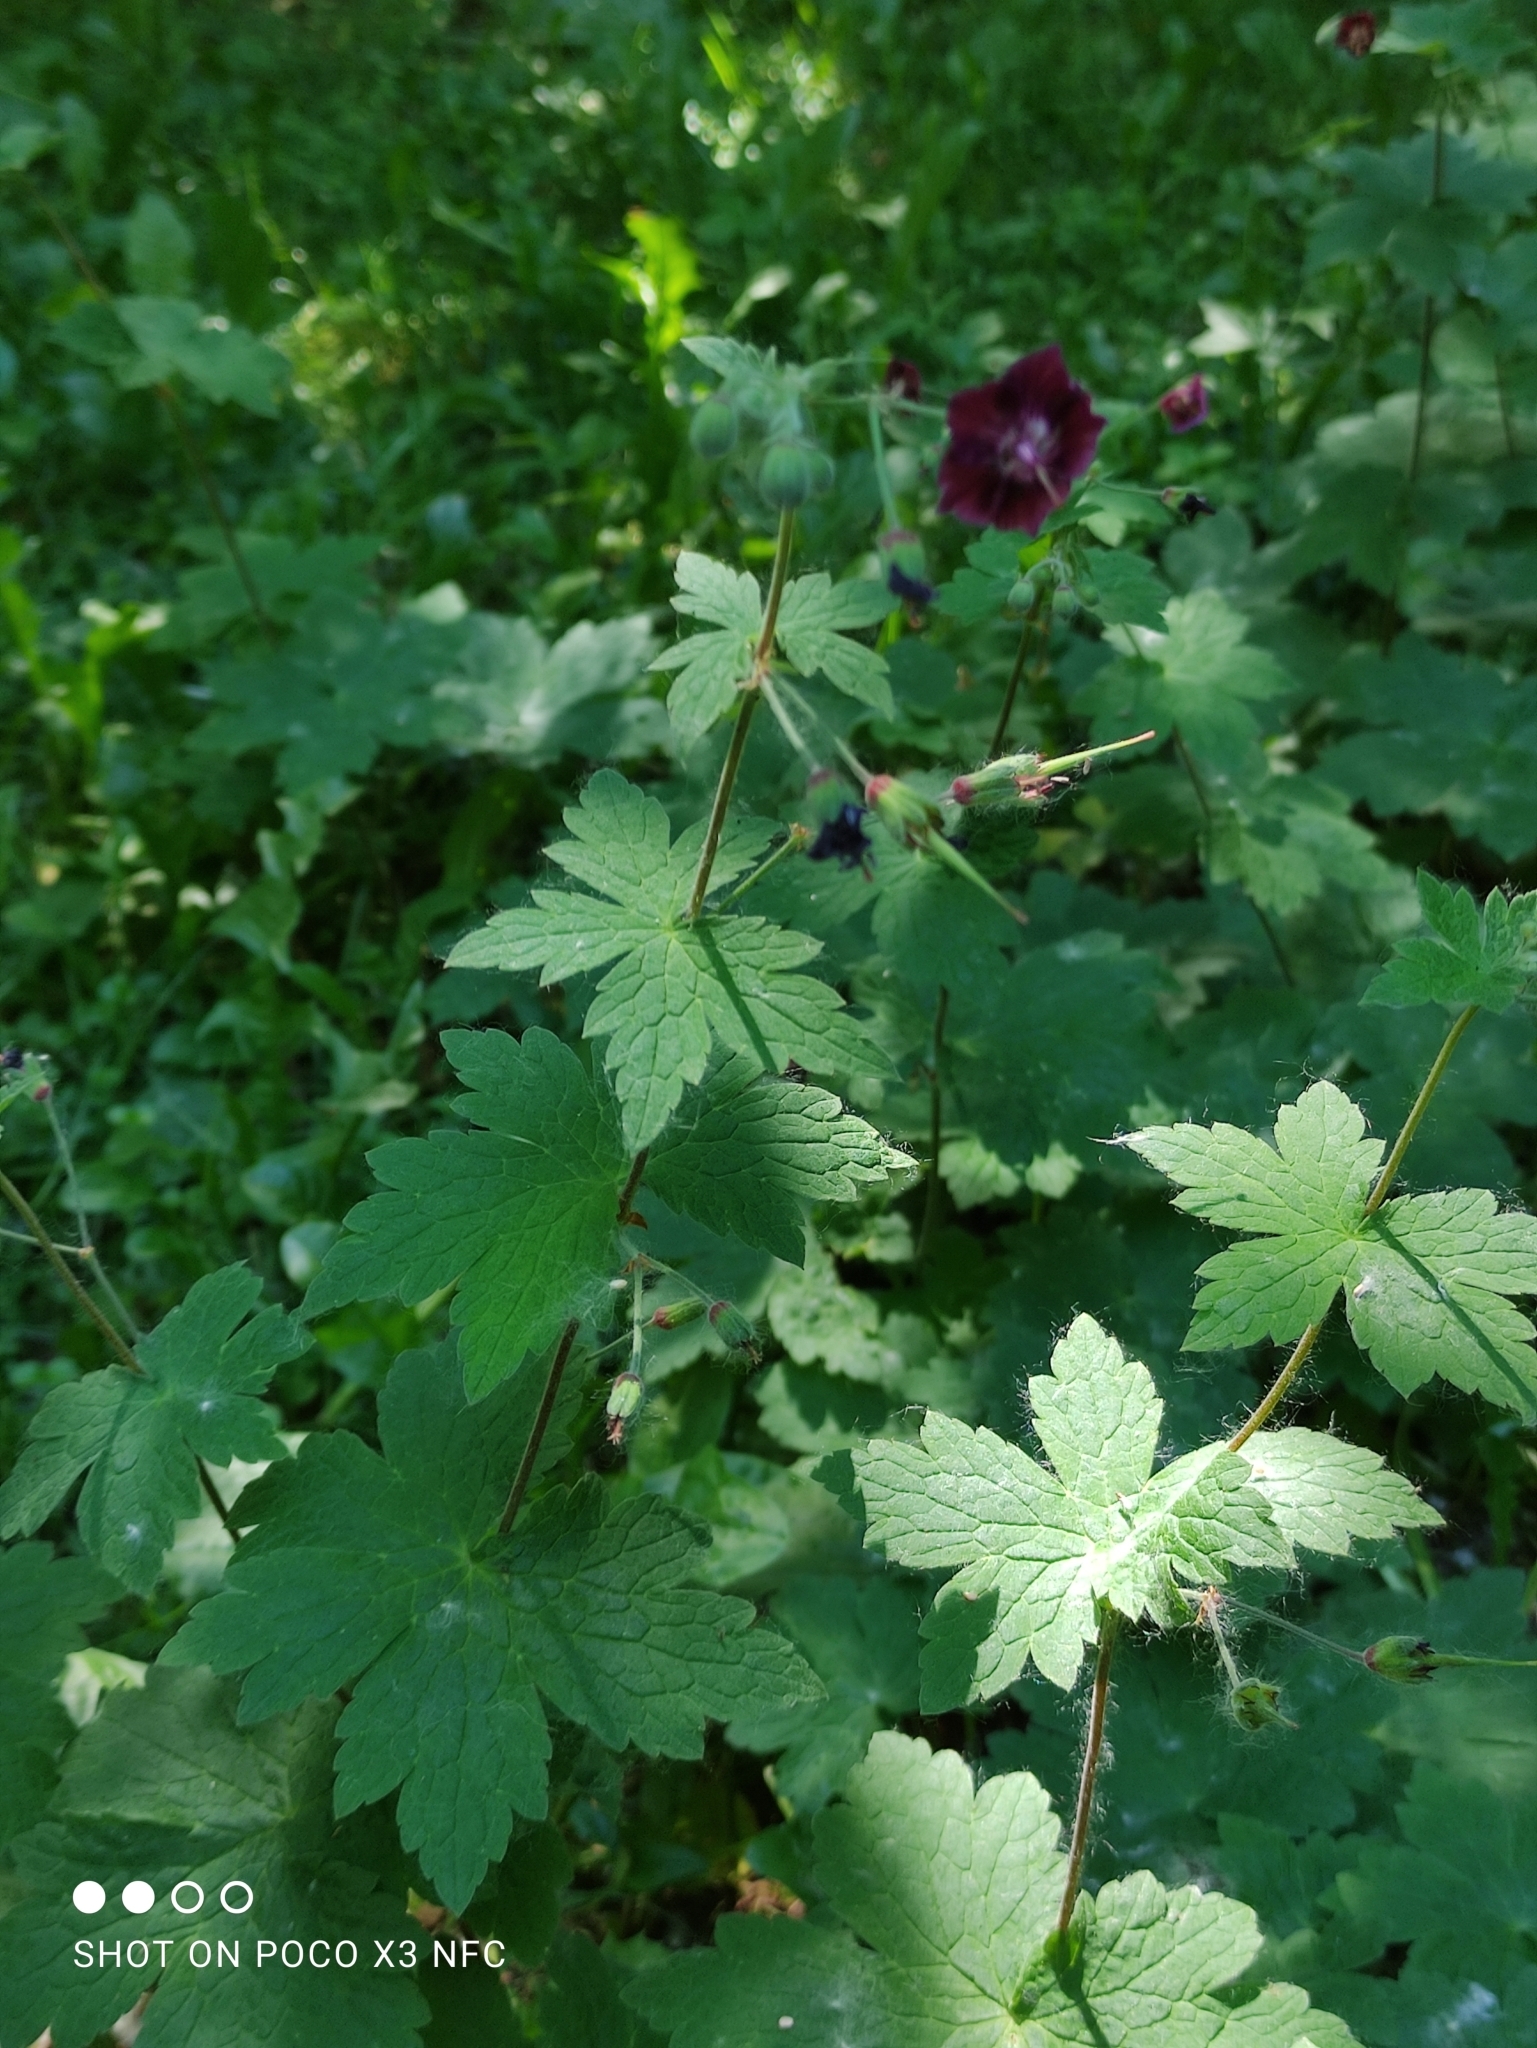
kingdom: Plantae
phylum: Tracheophyta
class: Magnoliopsida
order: Geraniales
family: Geraniaceae
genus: Geranium
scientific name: Geranium phaeum
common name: Dusky crane's-bill
